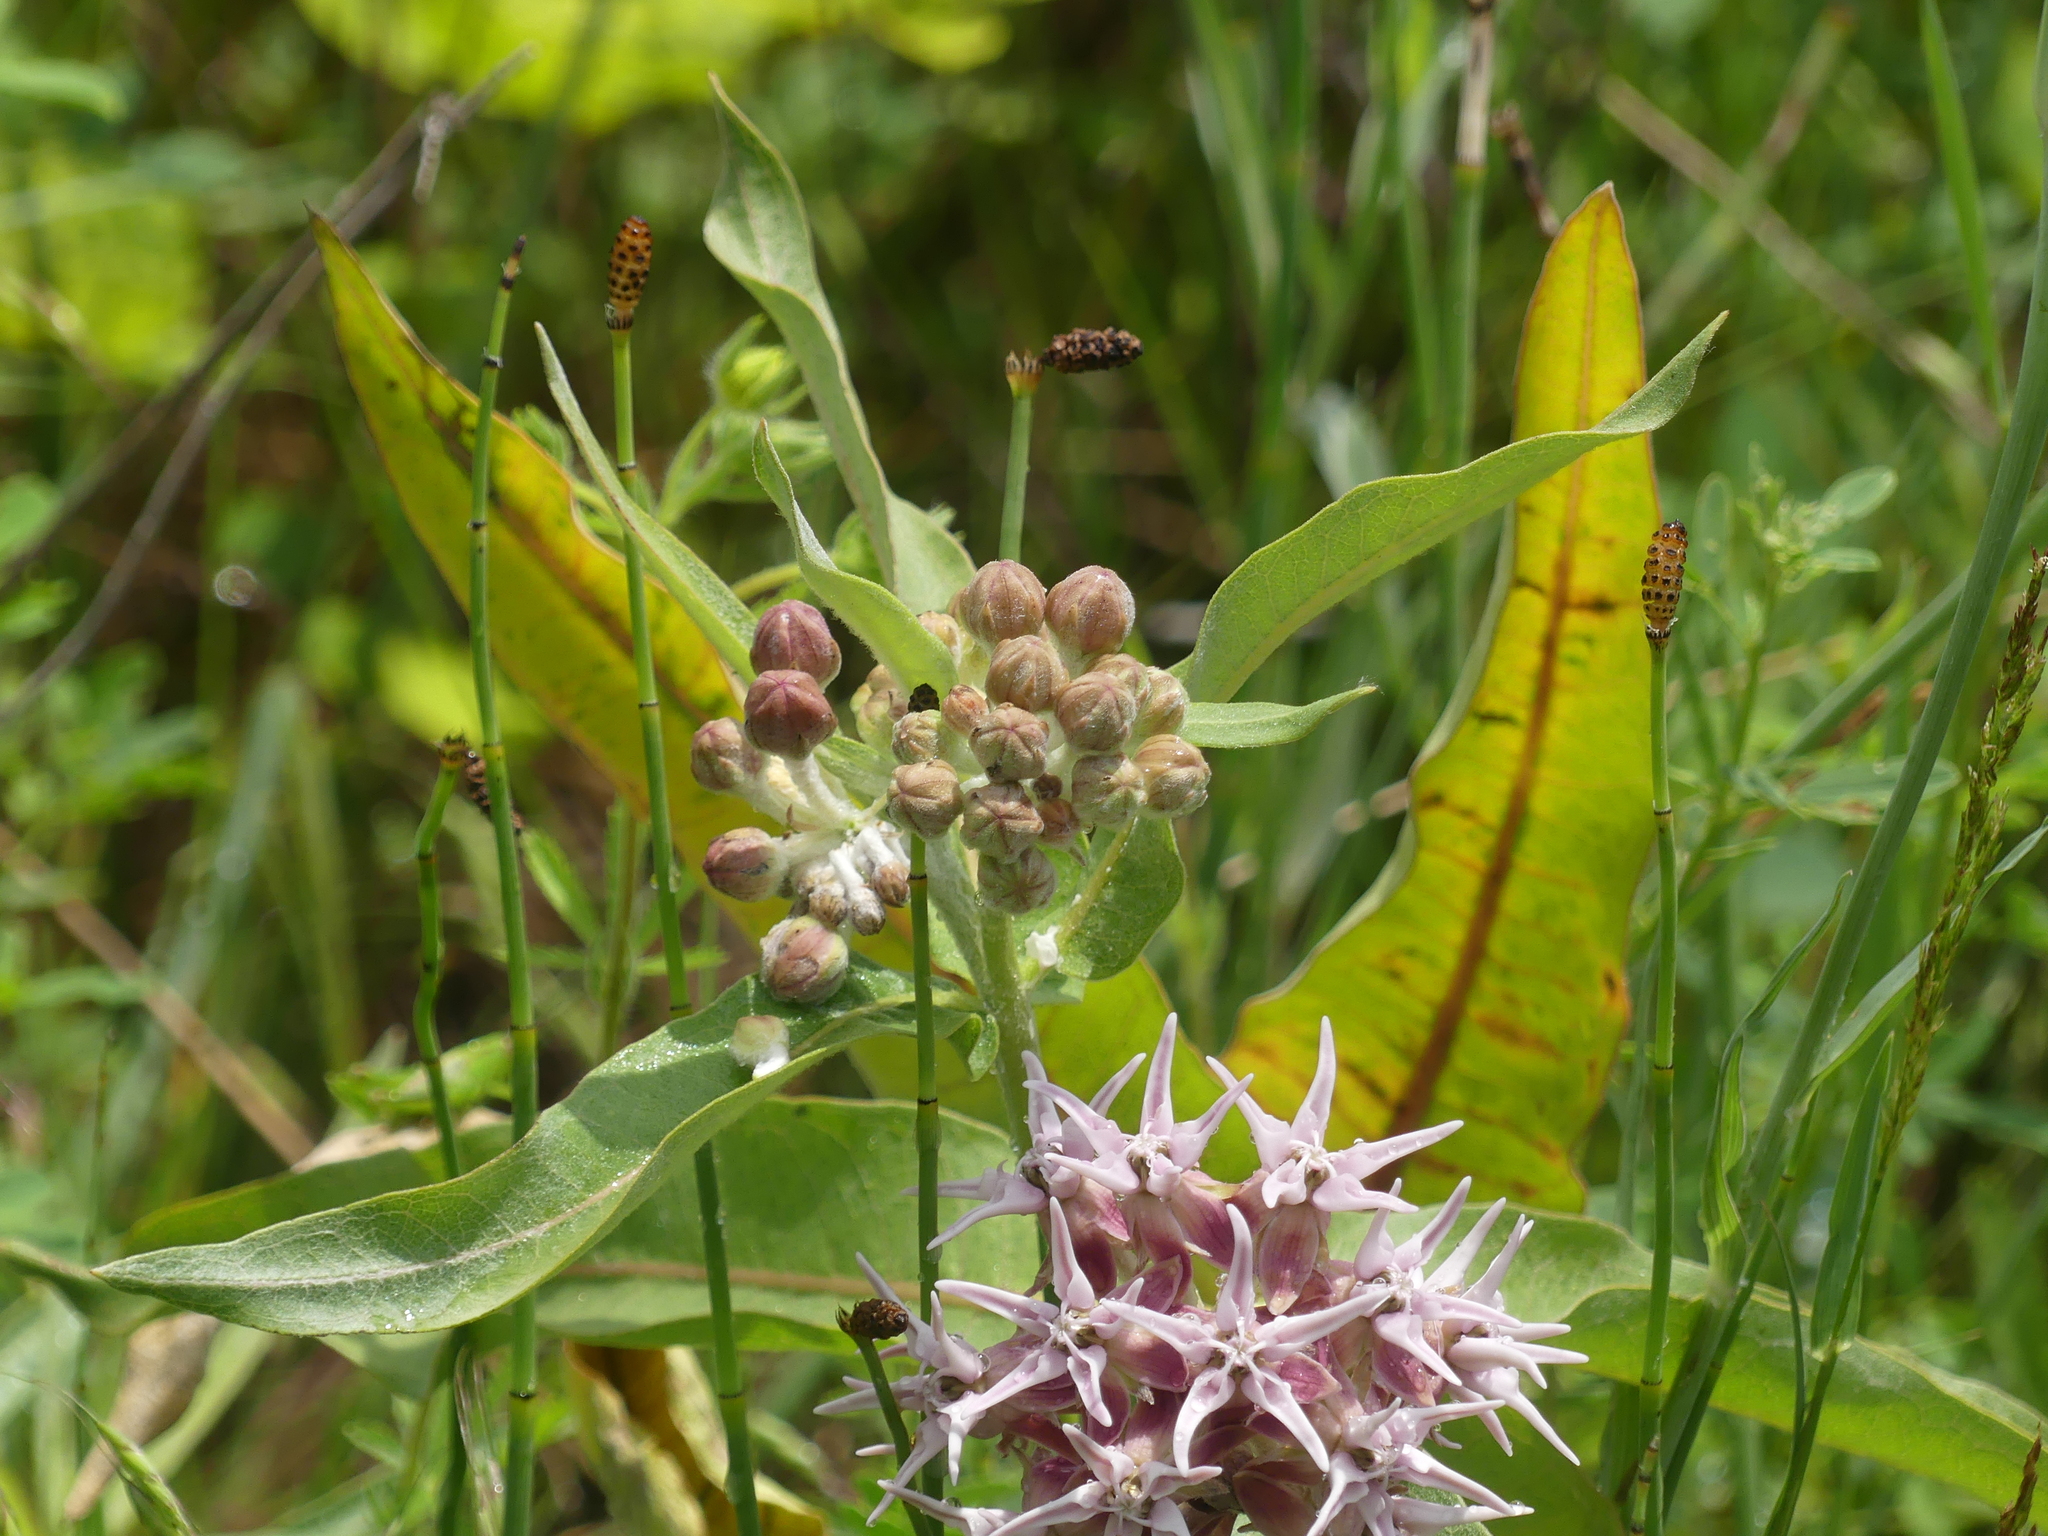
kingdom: Plantae
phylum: Tracheophyta
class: Magnoliopsida
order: Gentianales
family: Apocynaceae
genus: Asclepias
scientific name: Asclepias speciosa
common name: Showy milkweed
